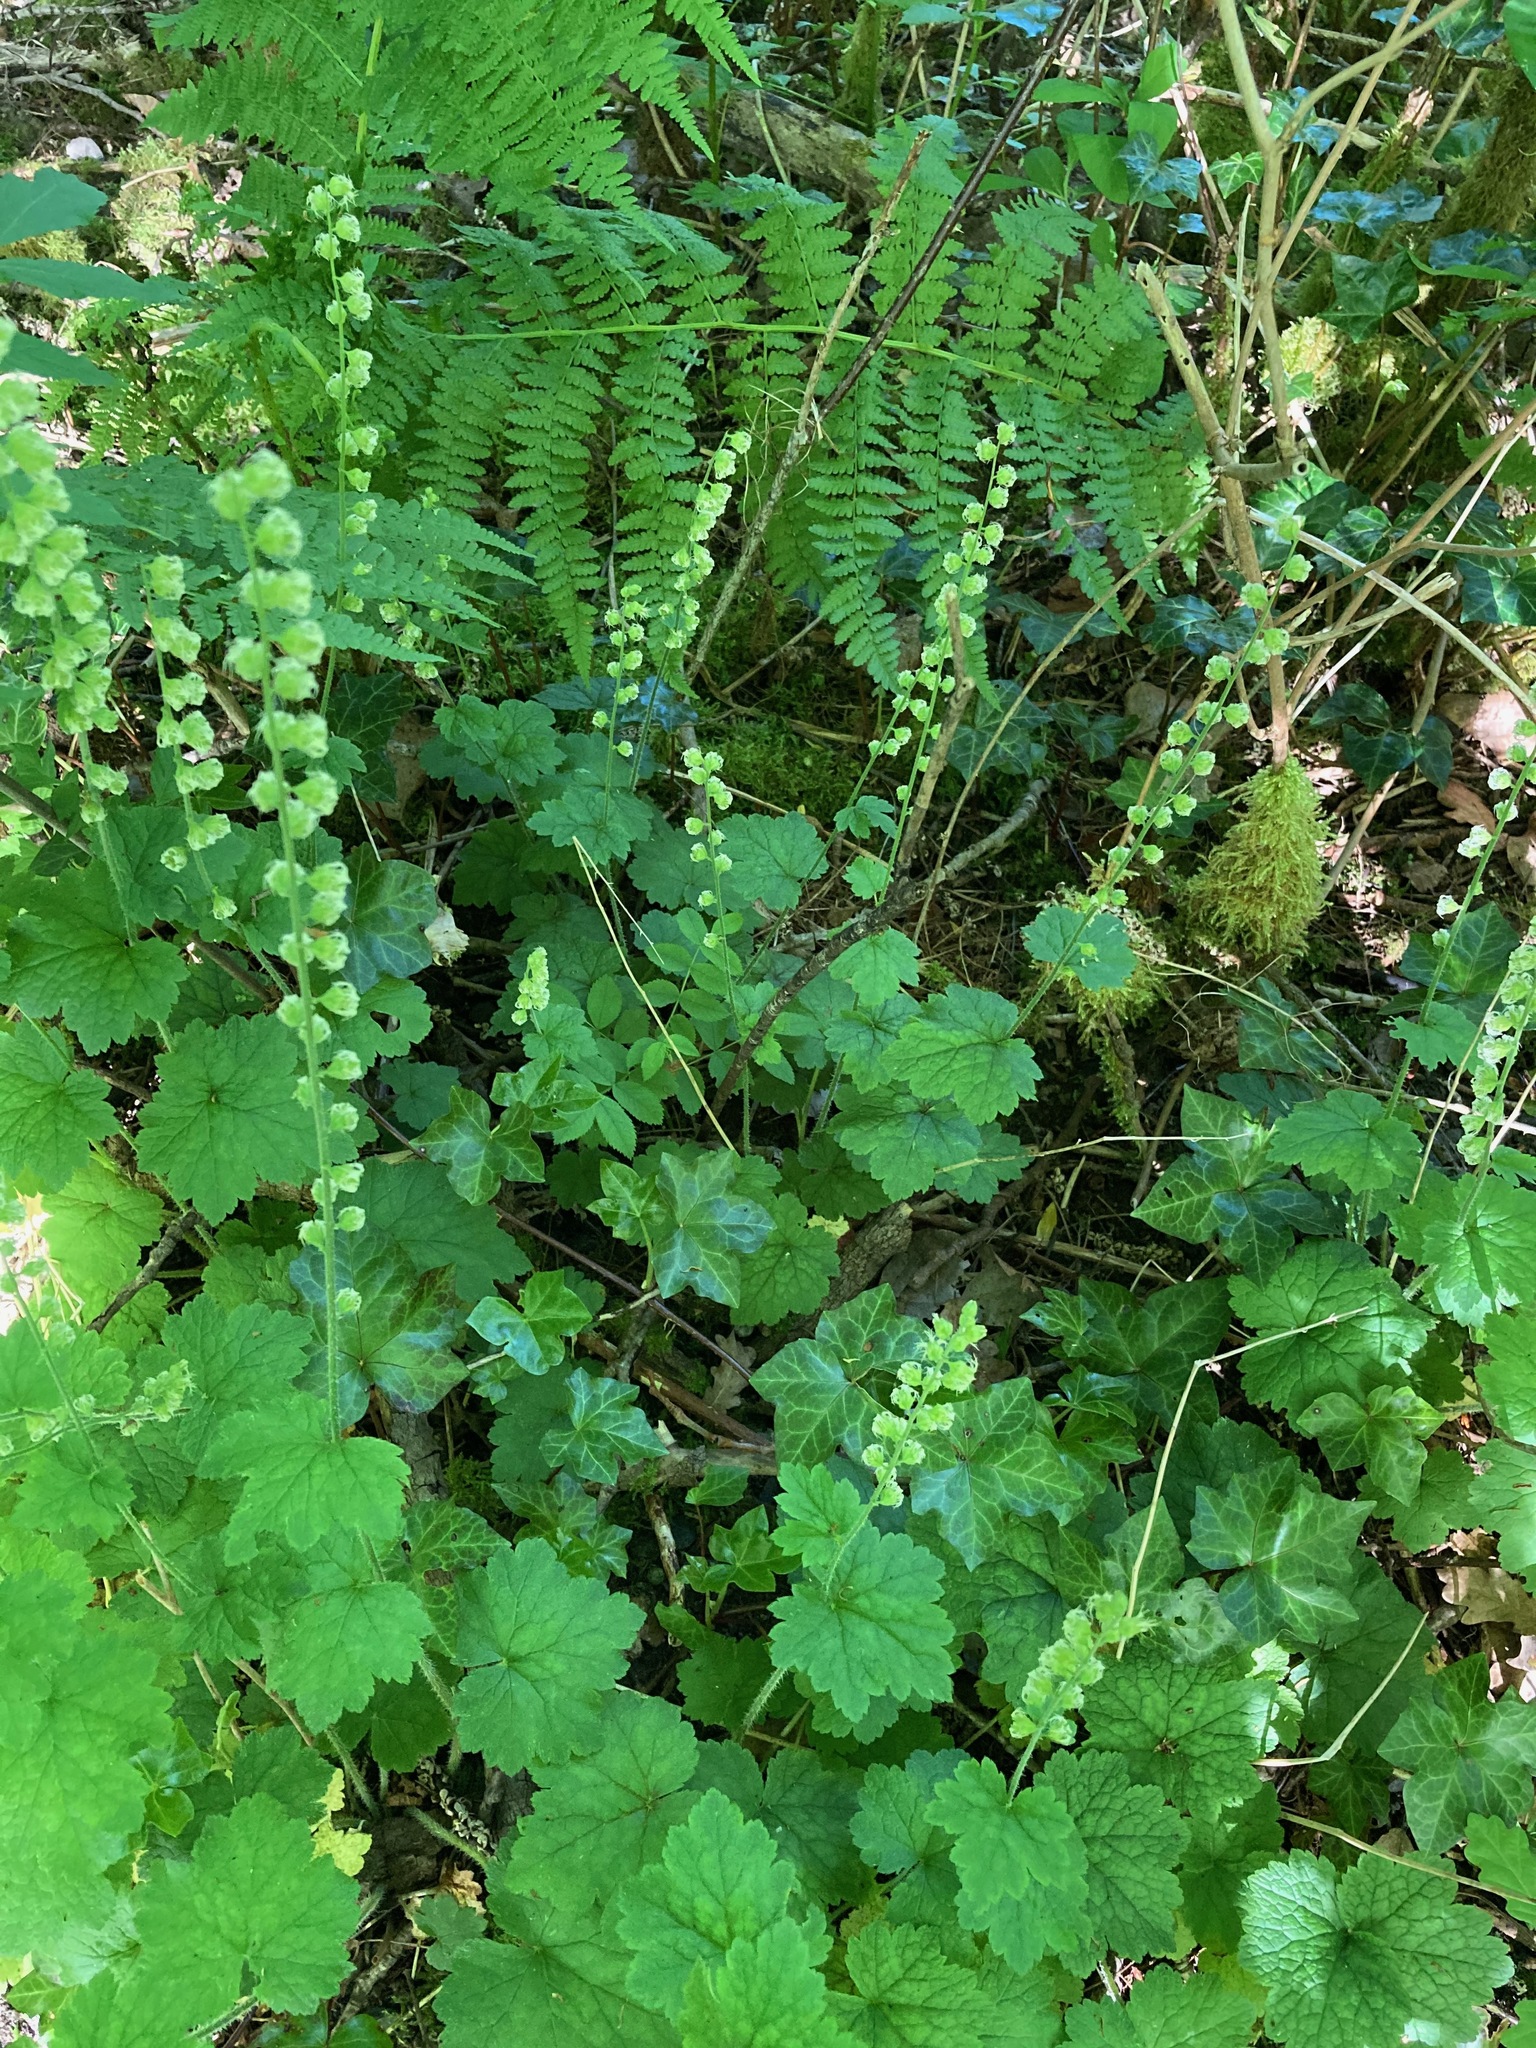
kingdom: Plantae
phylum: Tracheophyta
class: Magnoliopsida
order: Saxifragales
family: Saxifragaceae
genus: Tellima
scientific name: Tellima grandiflora
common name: Fringecups
